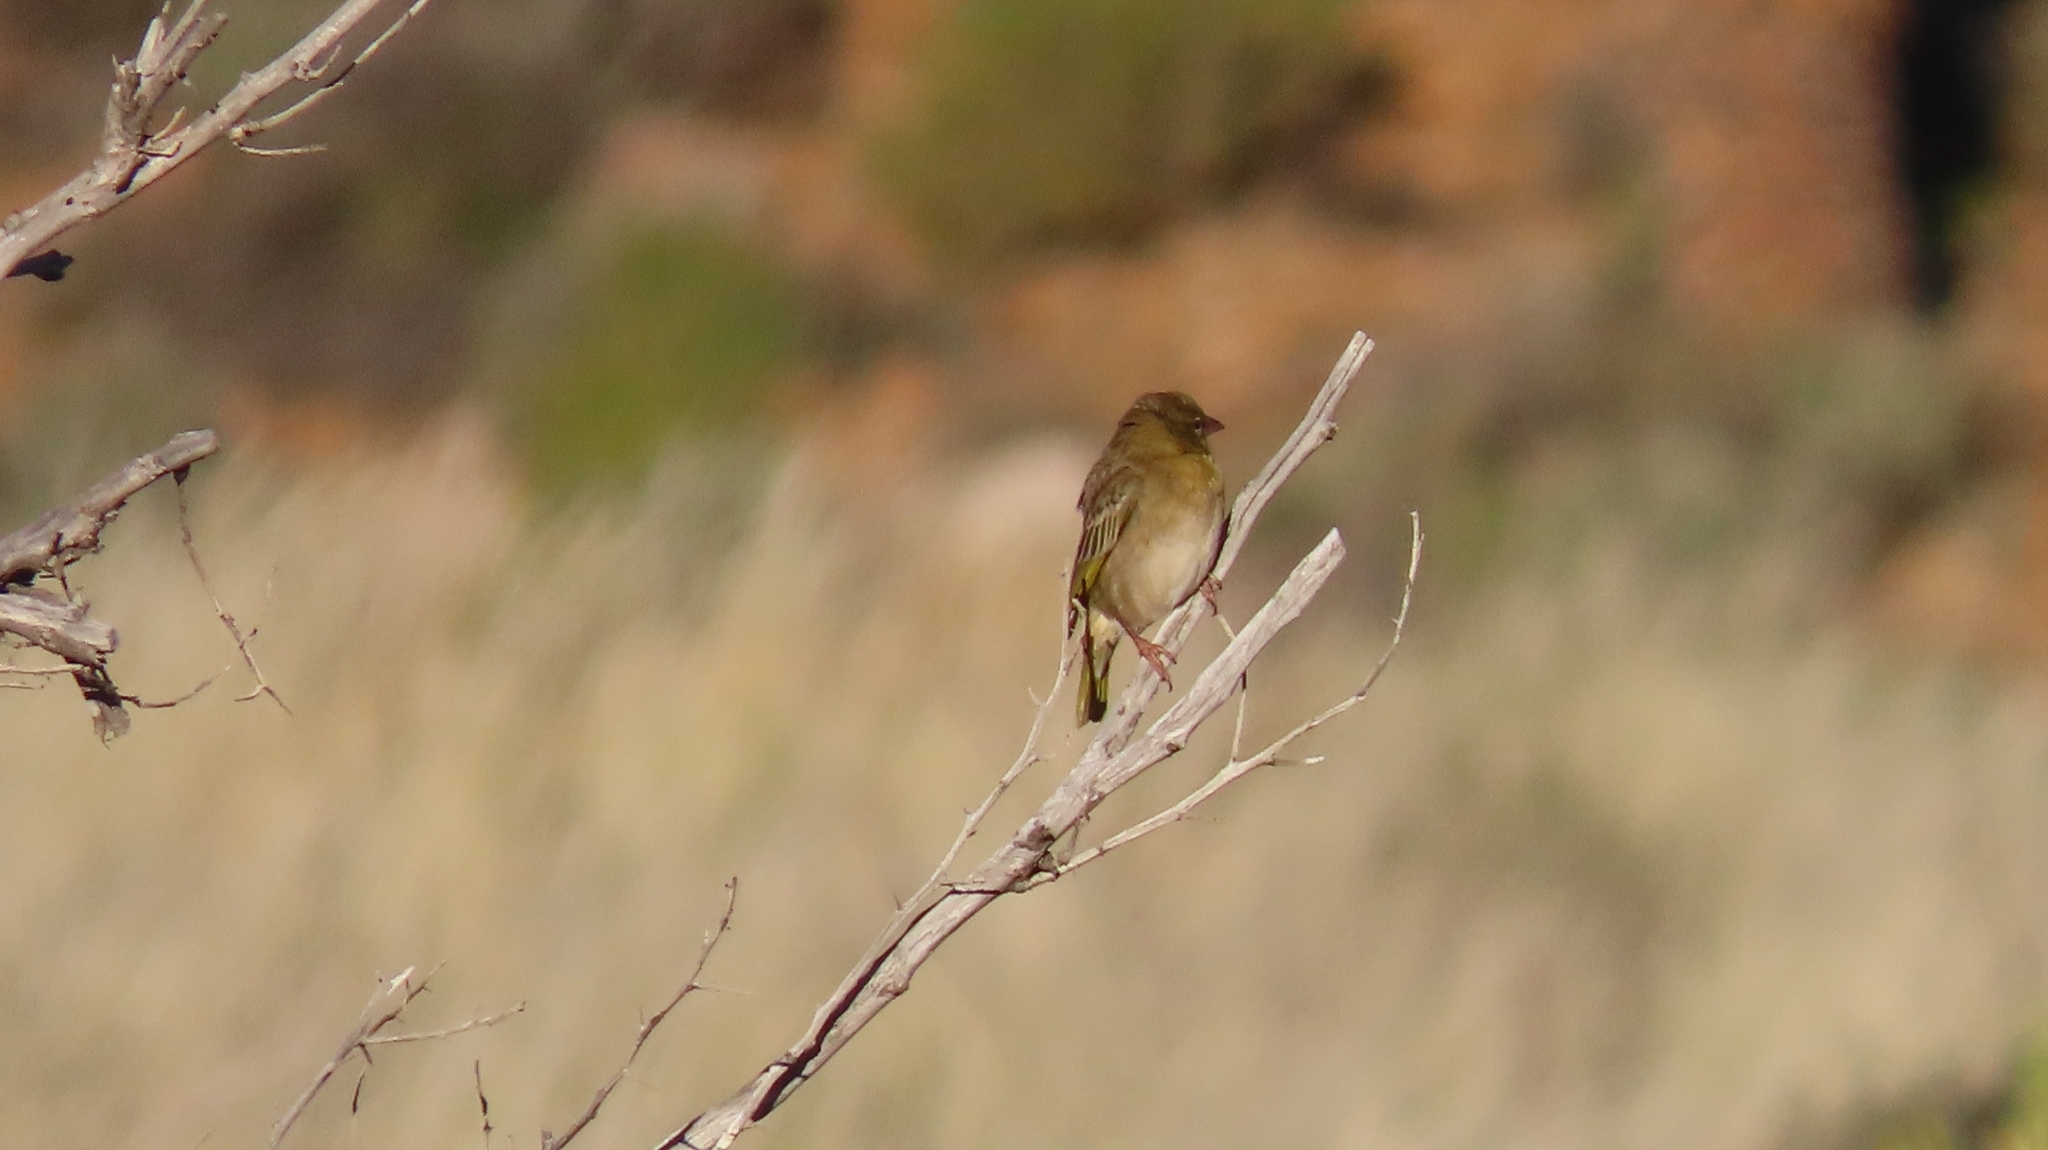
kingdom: Animalia
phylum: Chordata
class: Aves
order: Passeriformes
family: Ploceidae
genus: Ploceus
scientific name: Ploceus velatus
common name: Southern masked weaver
